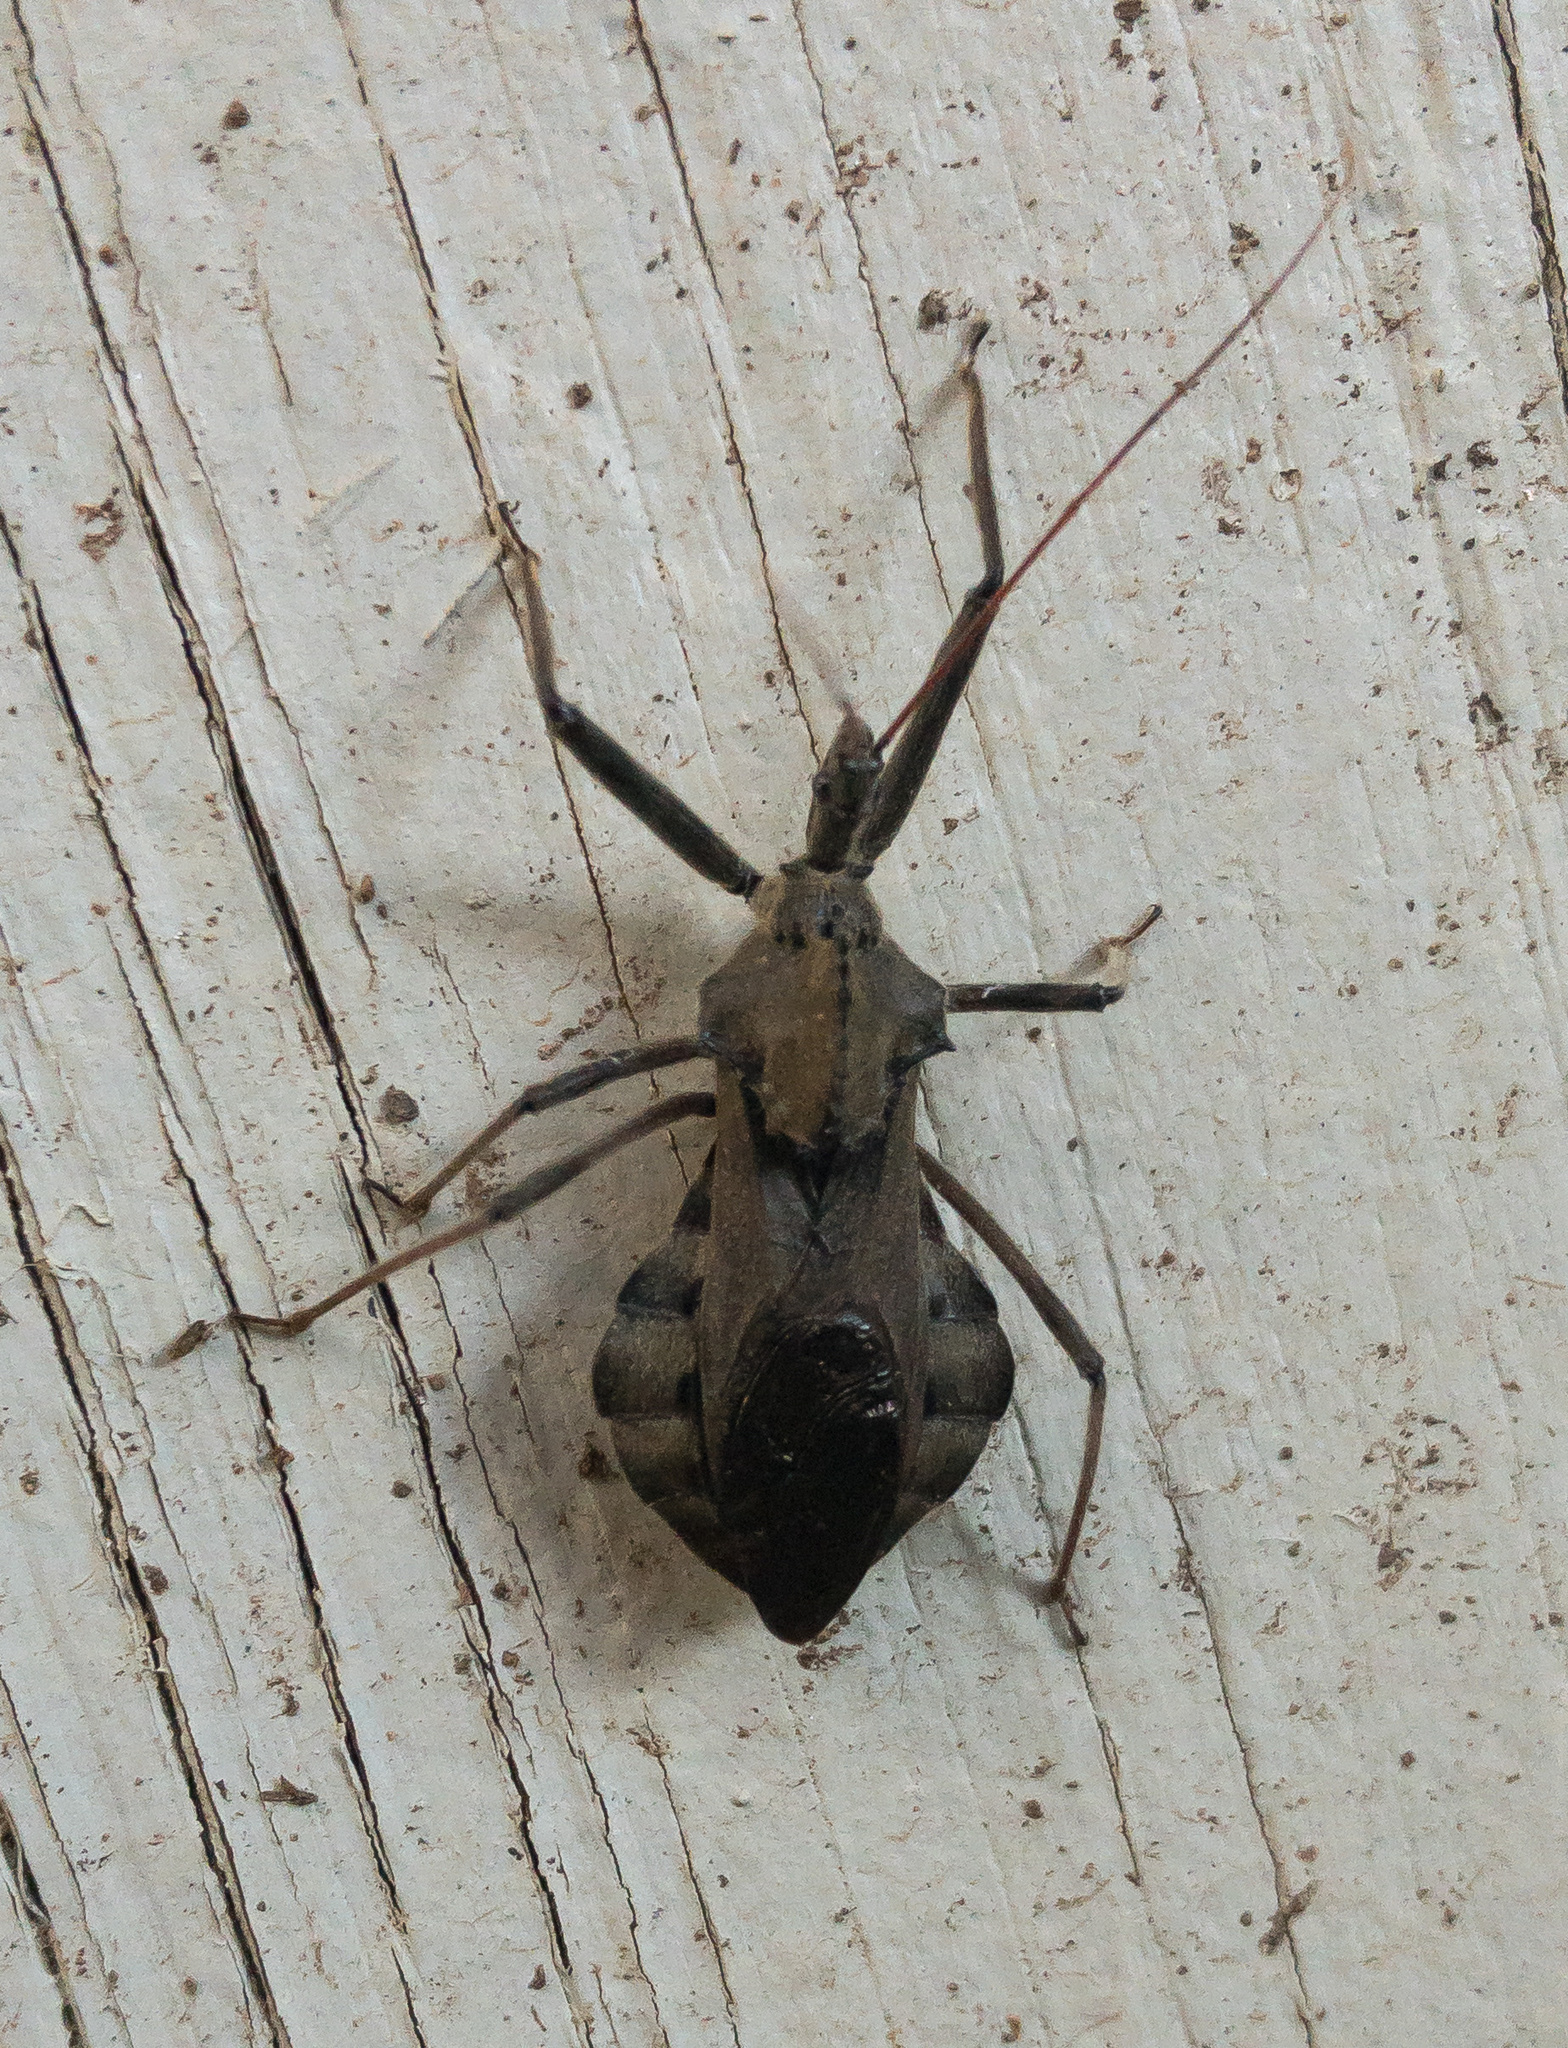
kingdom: Animalia
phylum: Arthropoda
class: Insecta
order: Hemiptera
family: Reduviidae
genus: Arilus
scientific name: Arilus cristatus
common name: North american wheel bug
